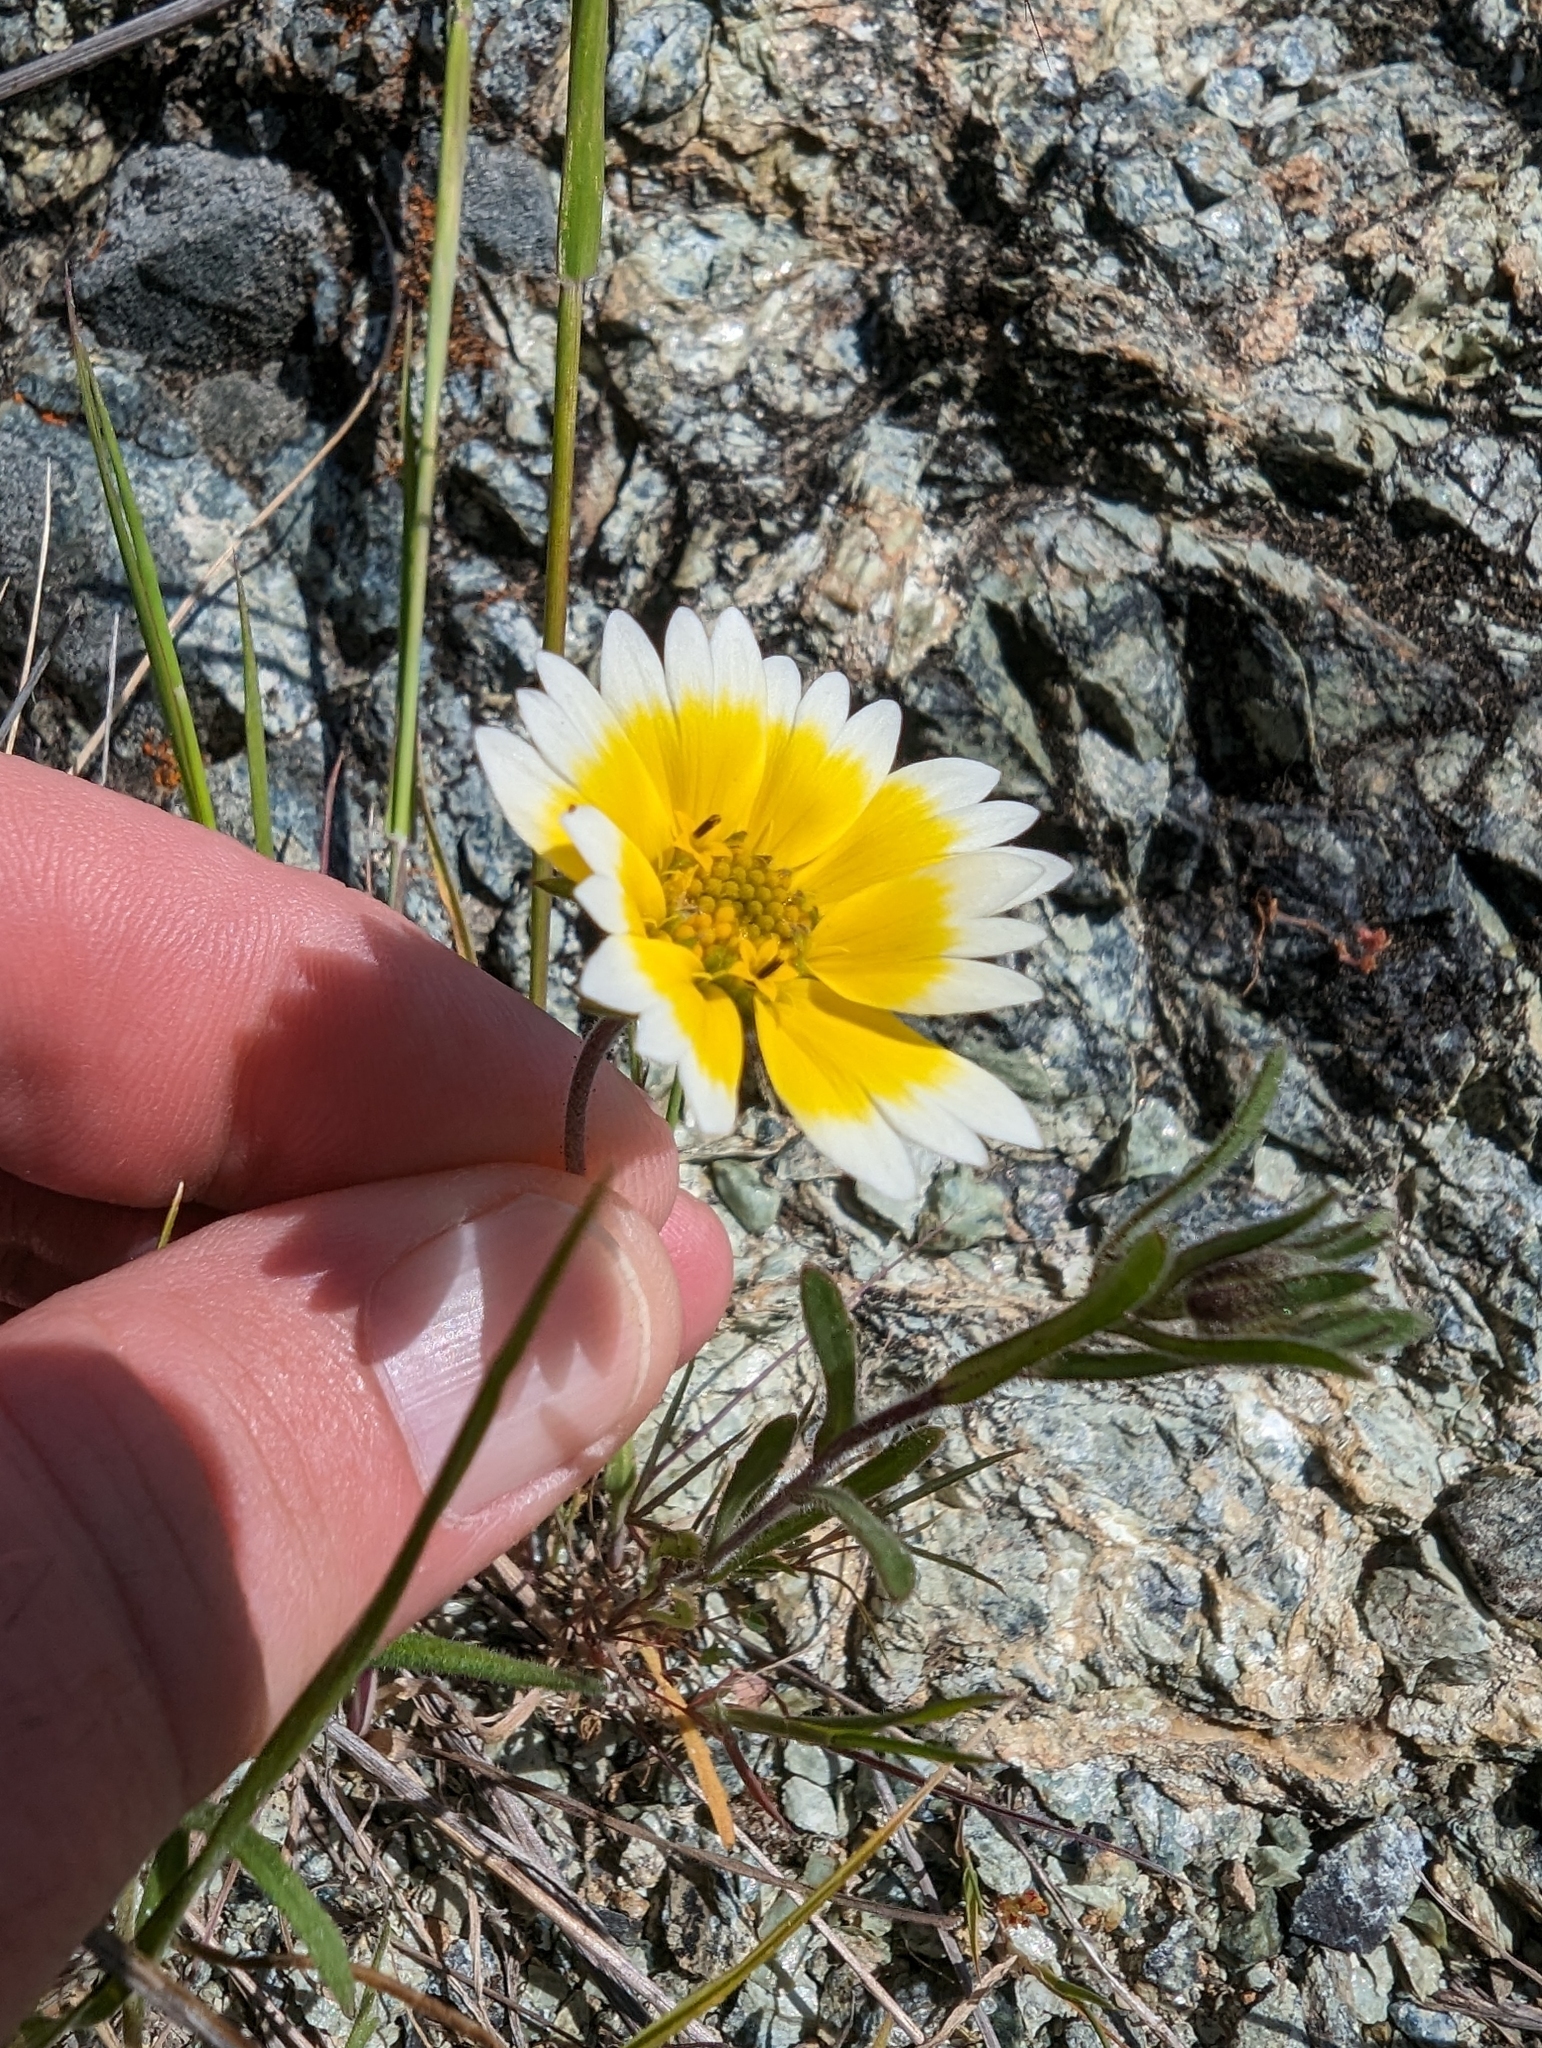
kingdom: Plantae
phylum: Tracheophyta
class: Magnoliopsida
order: Asterales
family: Asteraceae
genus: Layia
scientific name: Layia platyglossa
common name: Tidy-tips
